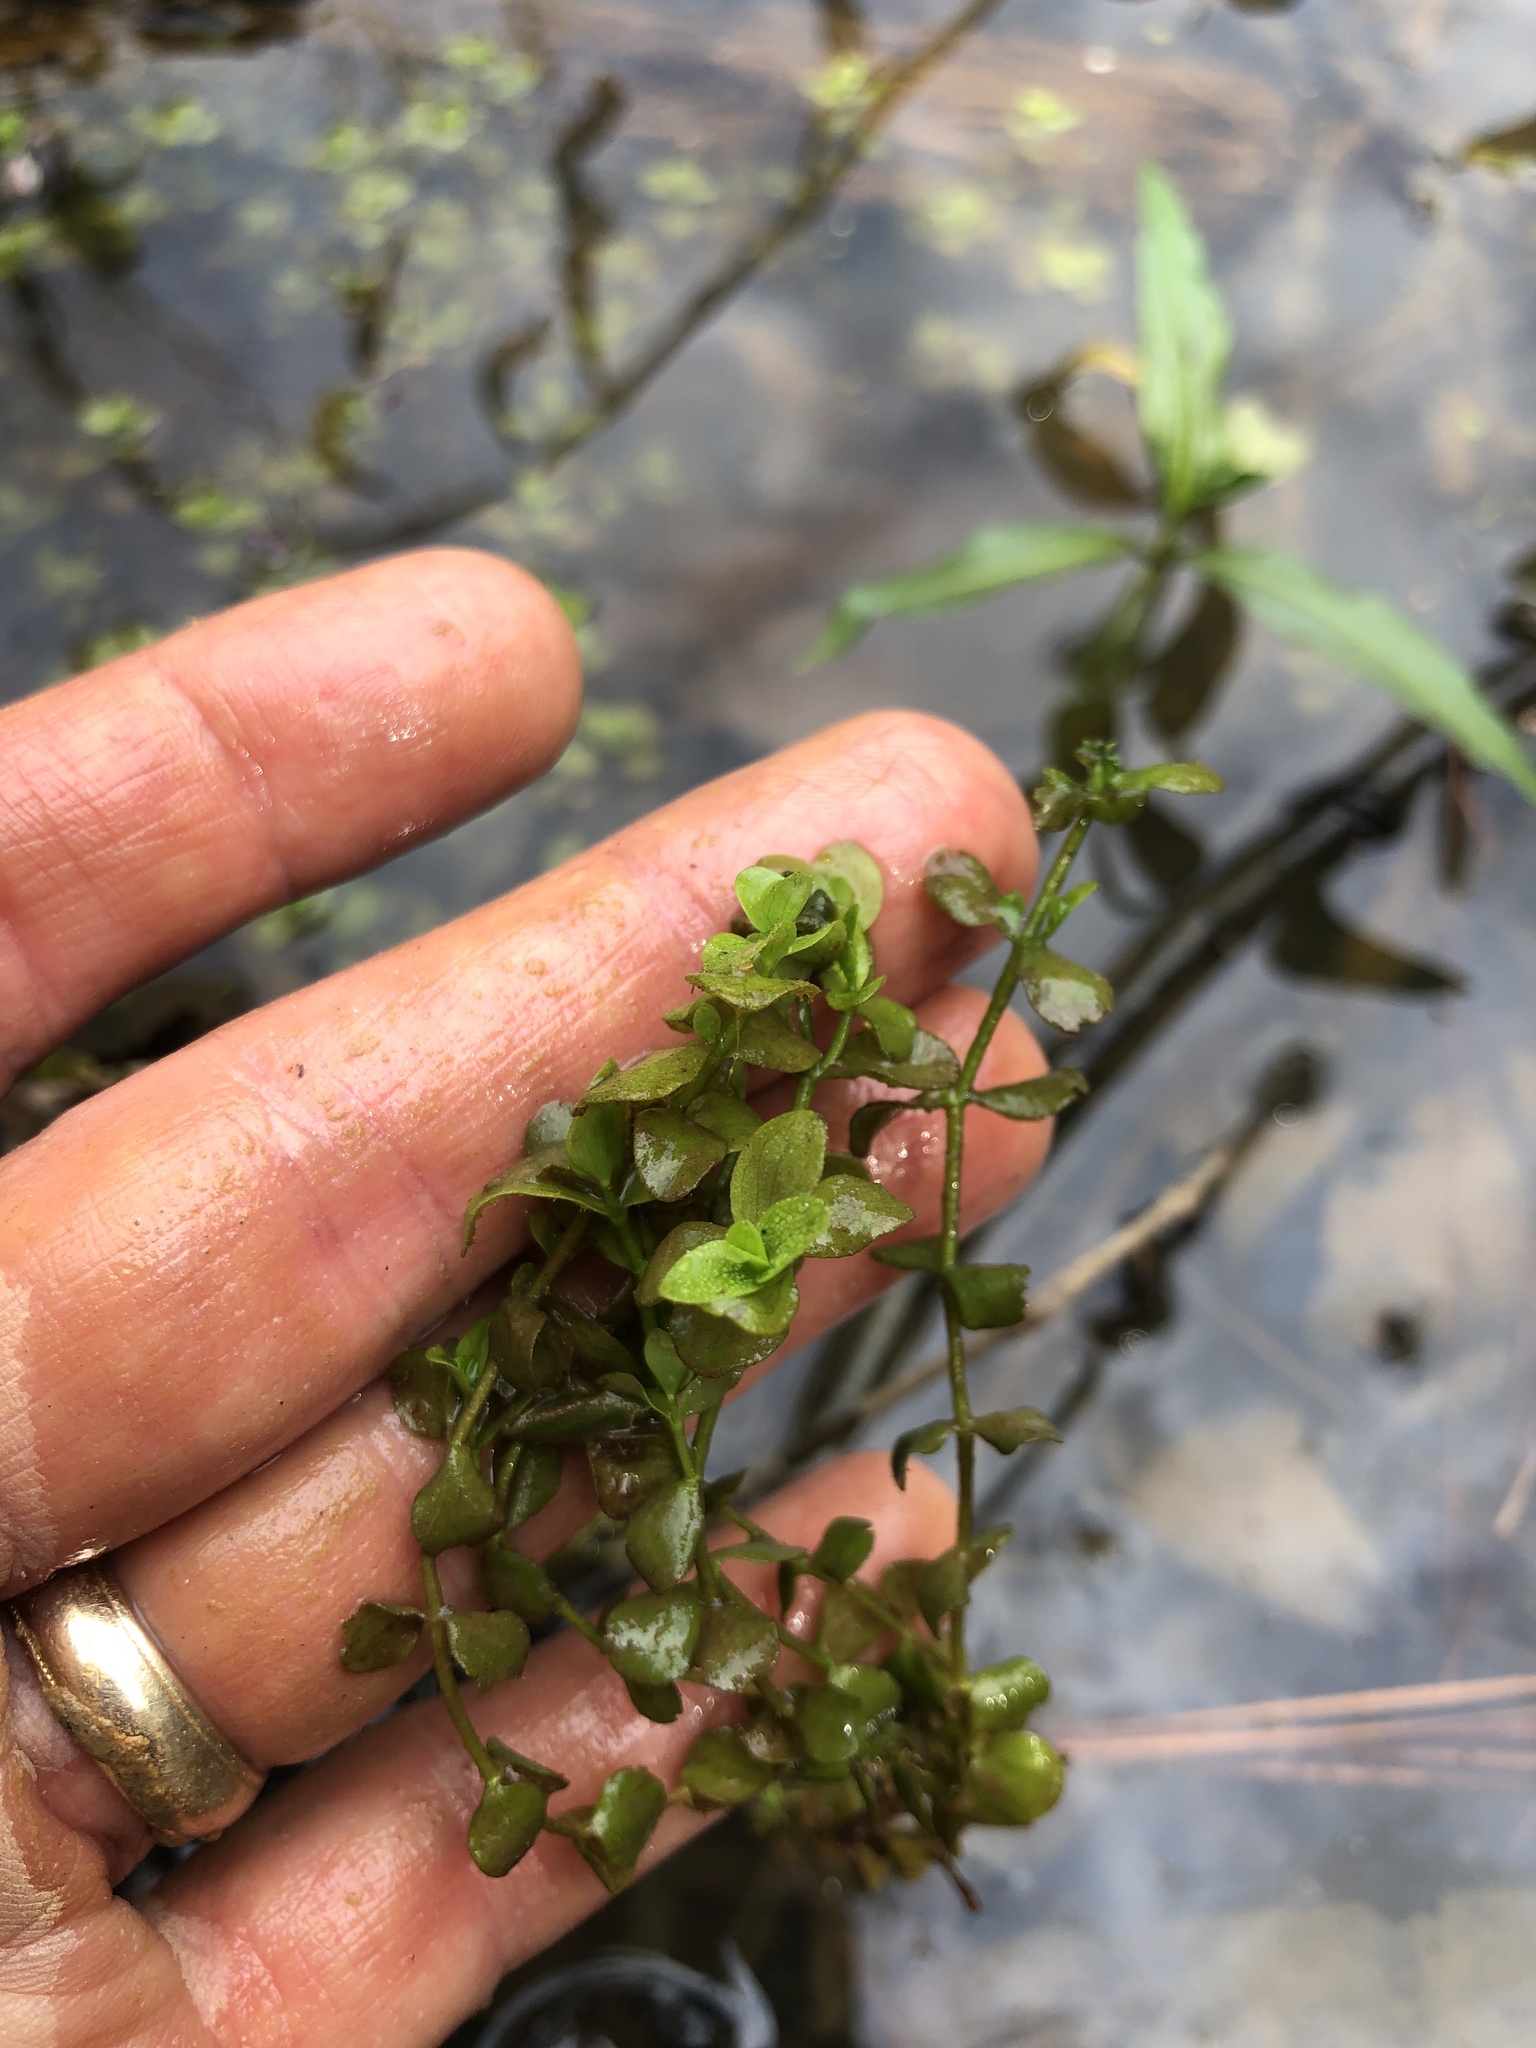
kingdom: Plantae
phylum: Tracheophyta
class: Magnoliopsida
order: Lamiales
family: Linderniaceae
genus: Micranthemum
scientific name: Micranthemum umbrosum
